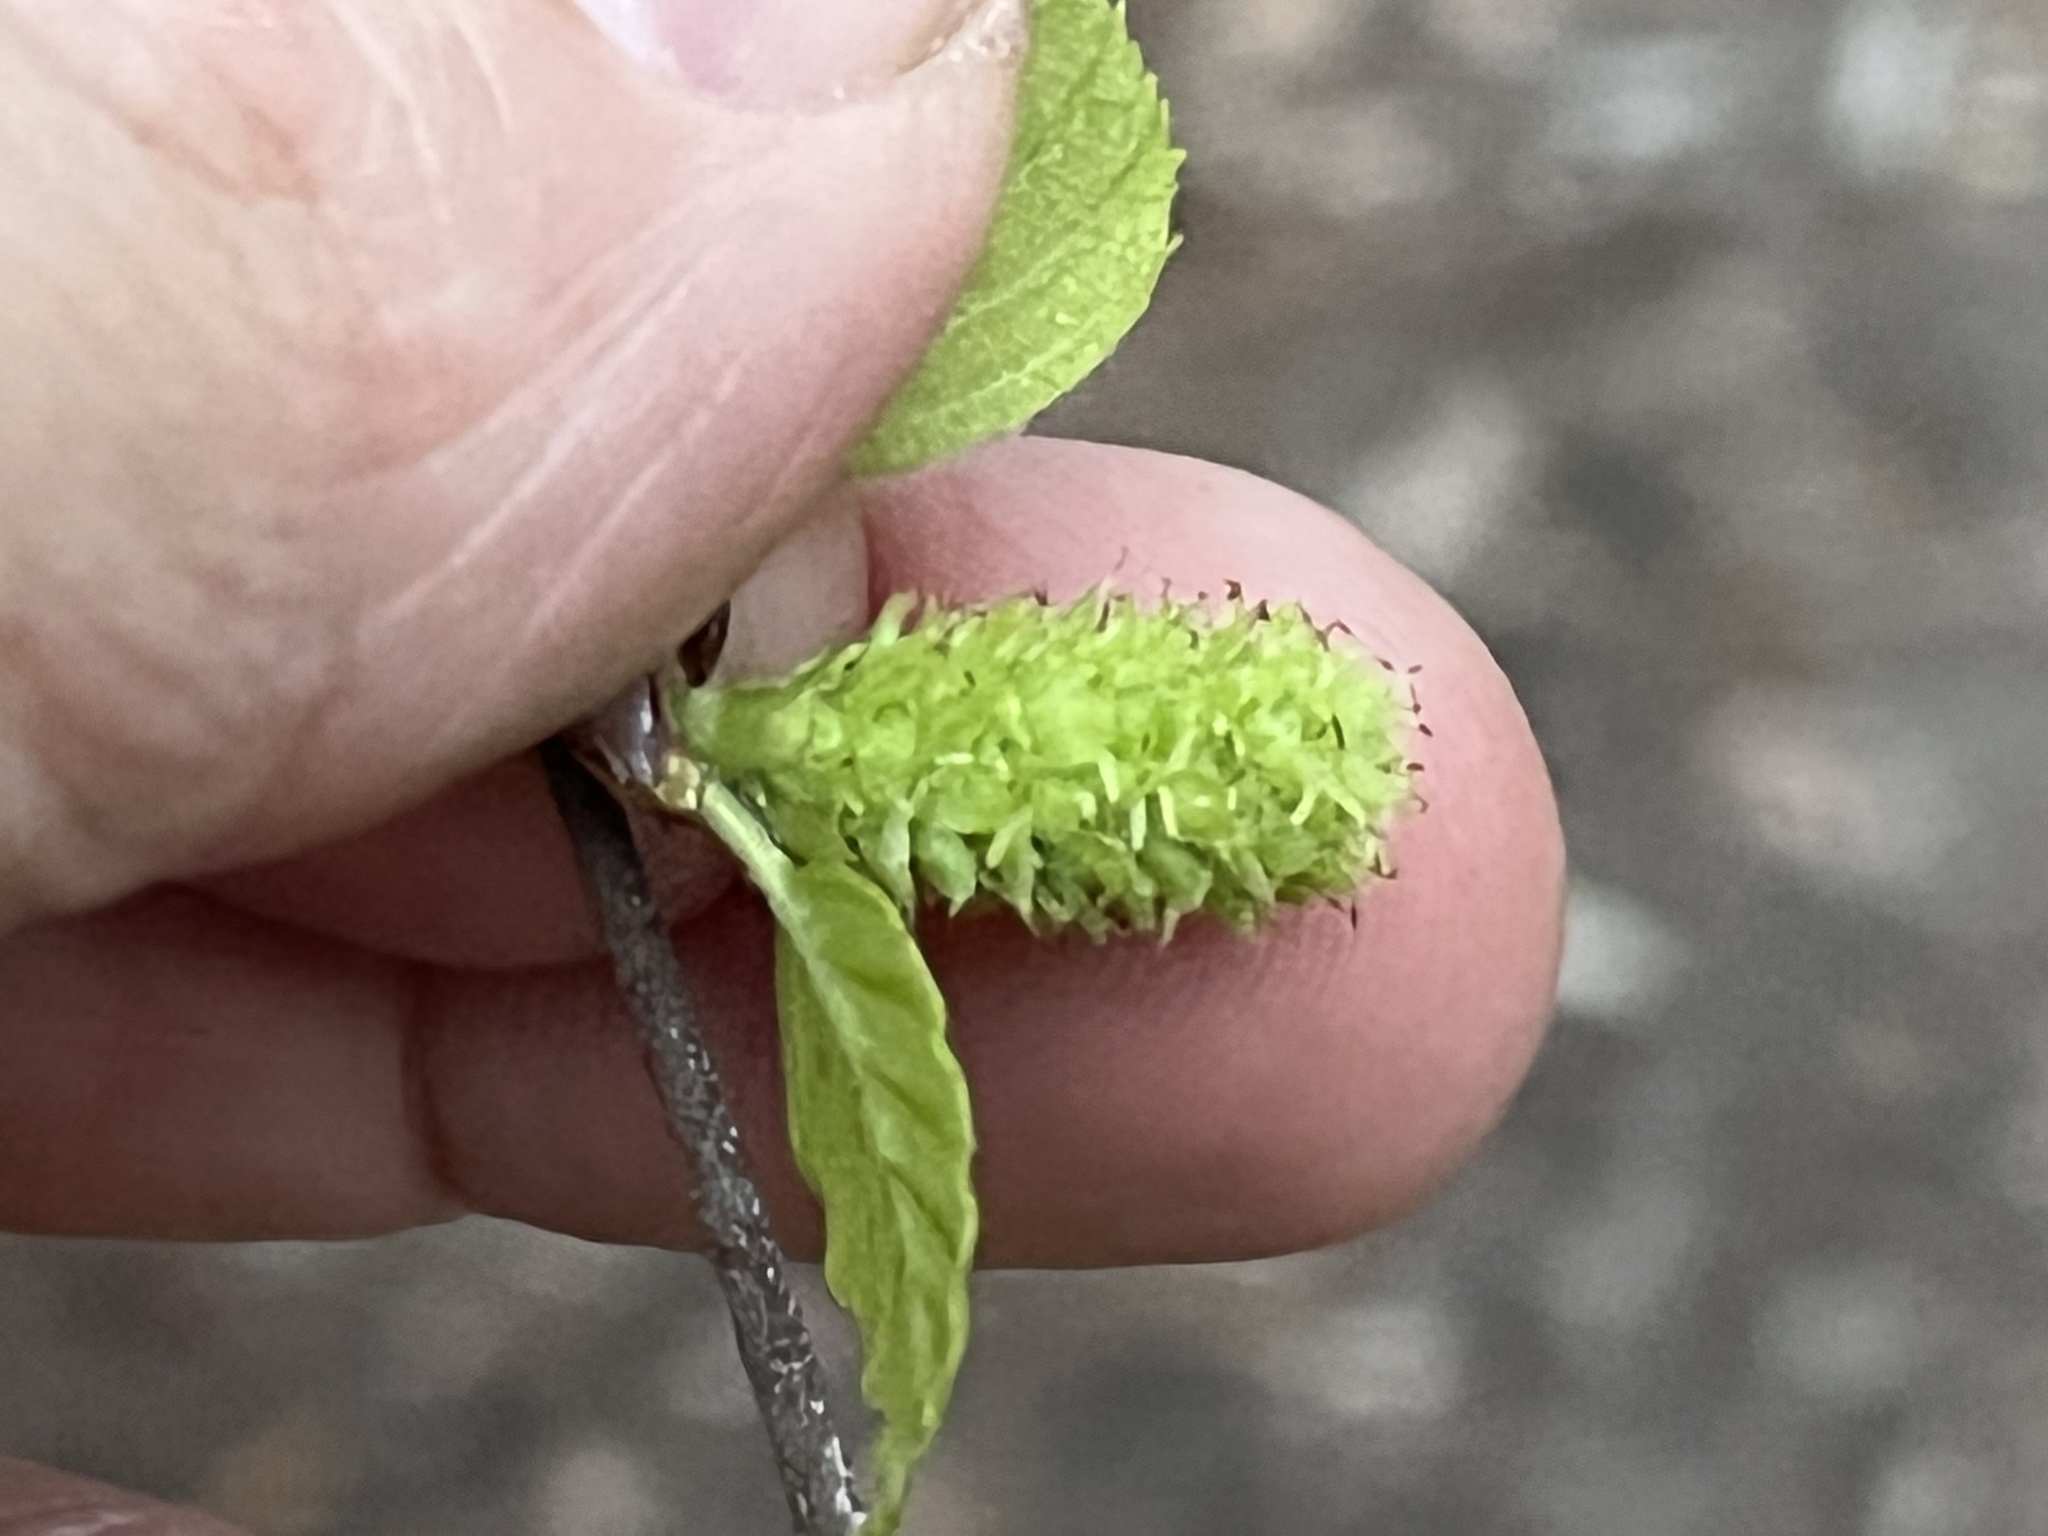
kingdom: Plantae
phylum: Tracheophyta
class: Magnoliopsida
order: Fagales
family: Betulaceae
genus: Betula
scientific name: Betula nigra
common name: Black birch
